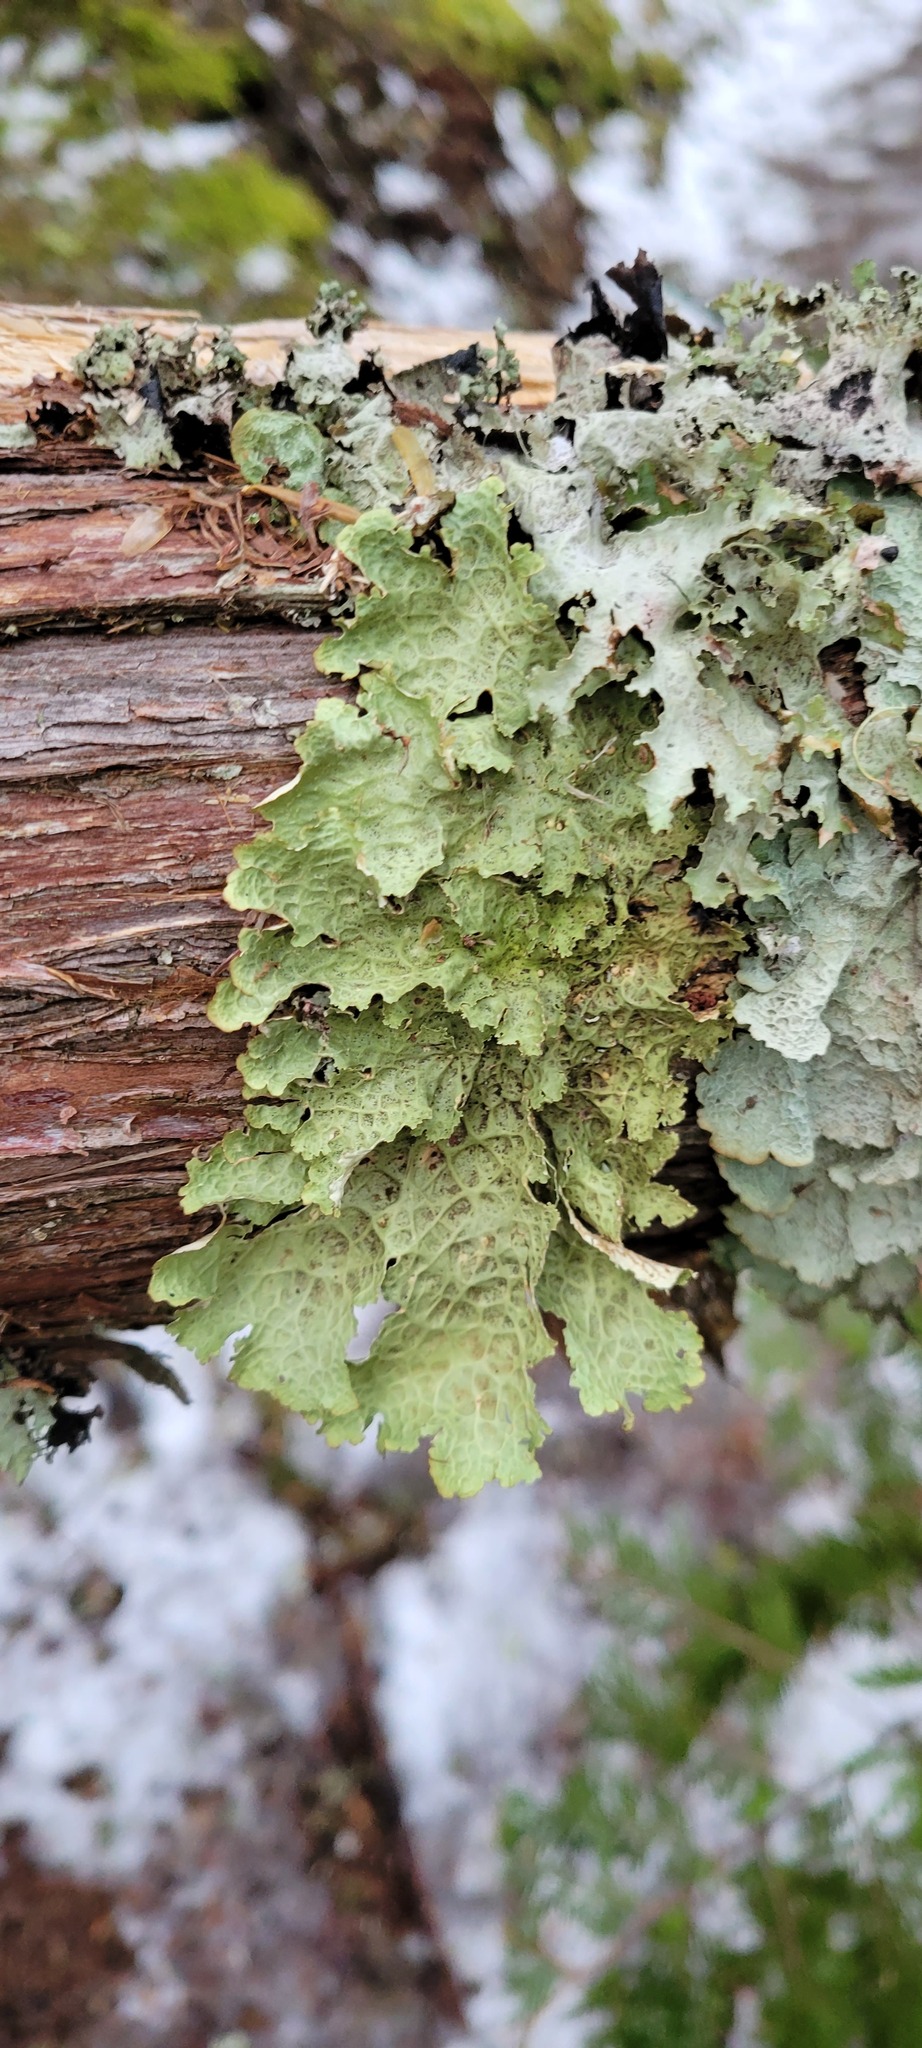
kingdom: Fungi
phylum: Ascomycota
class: Lecanoromycetes
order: Peltigerales
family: Lobariaceae
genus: Lobaria
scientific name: Lobaria oregana
